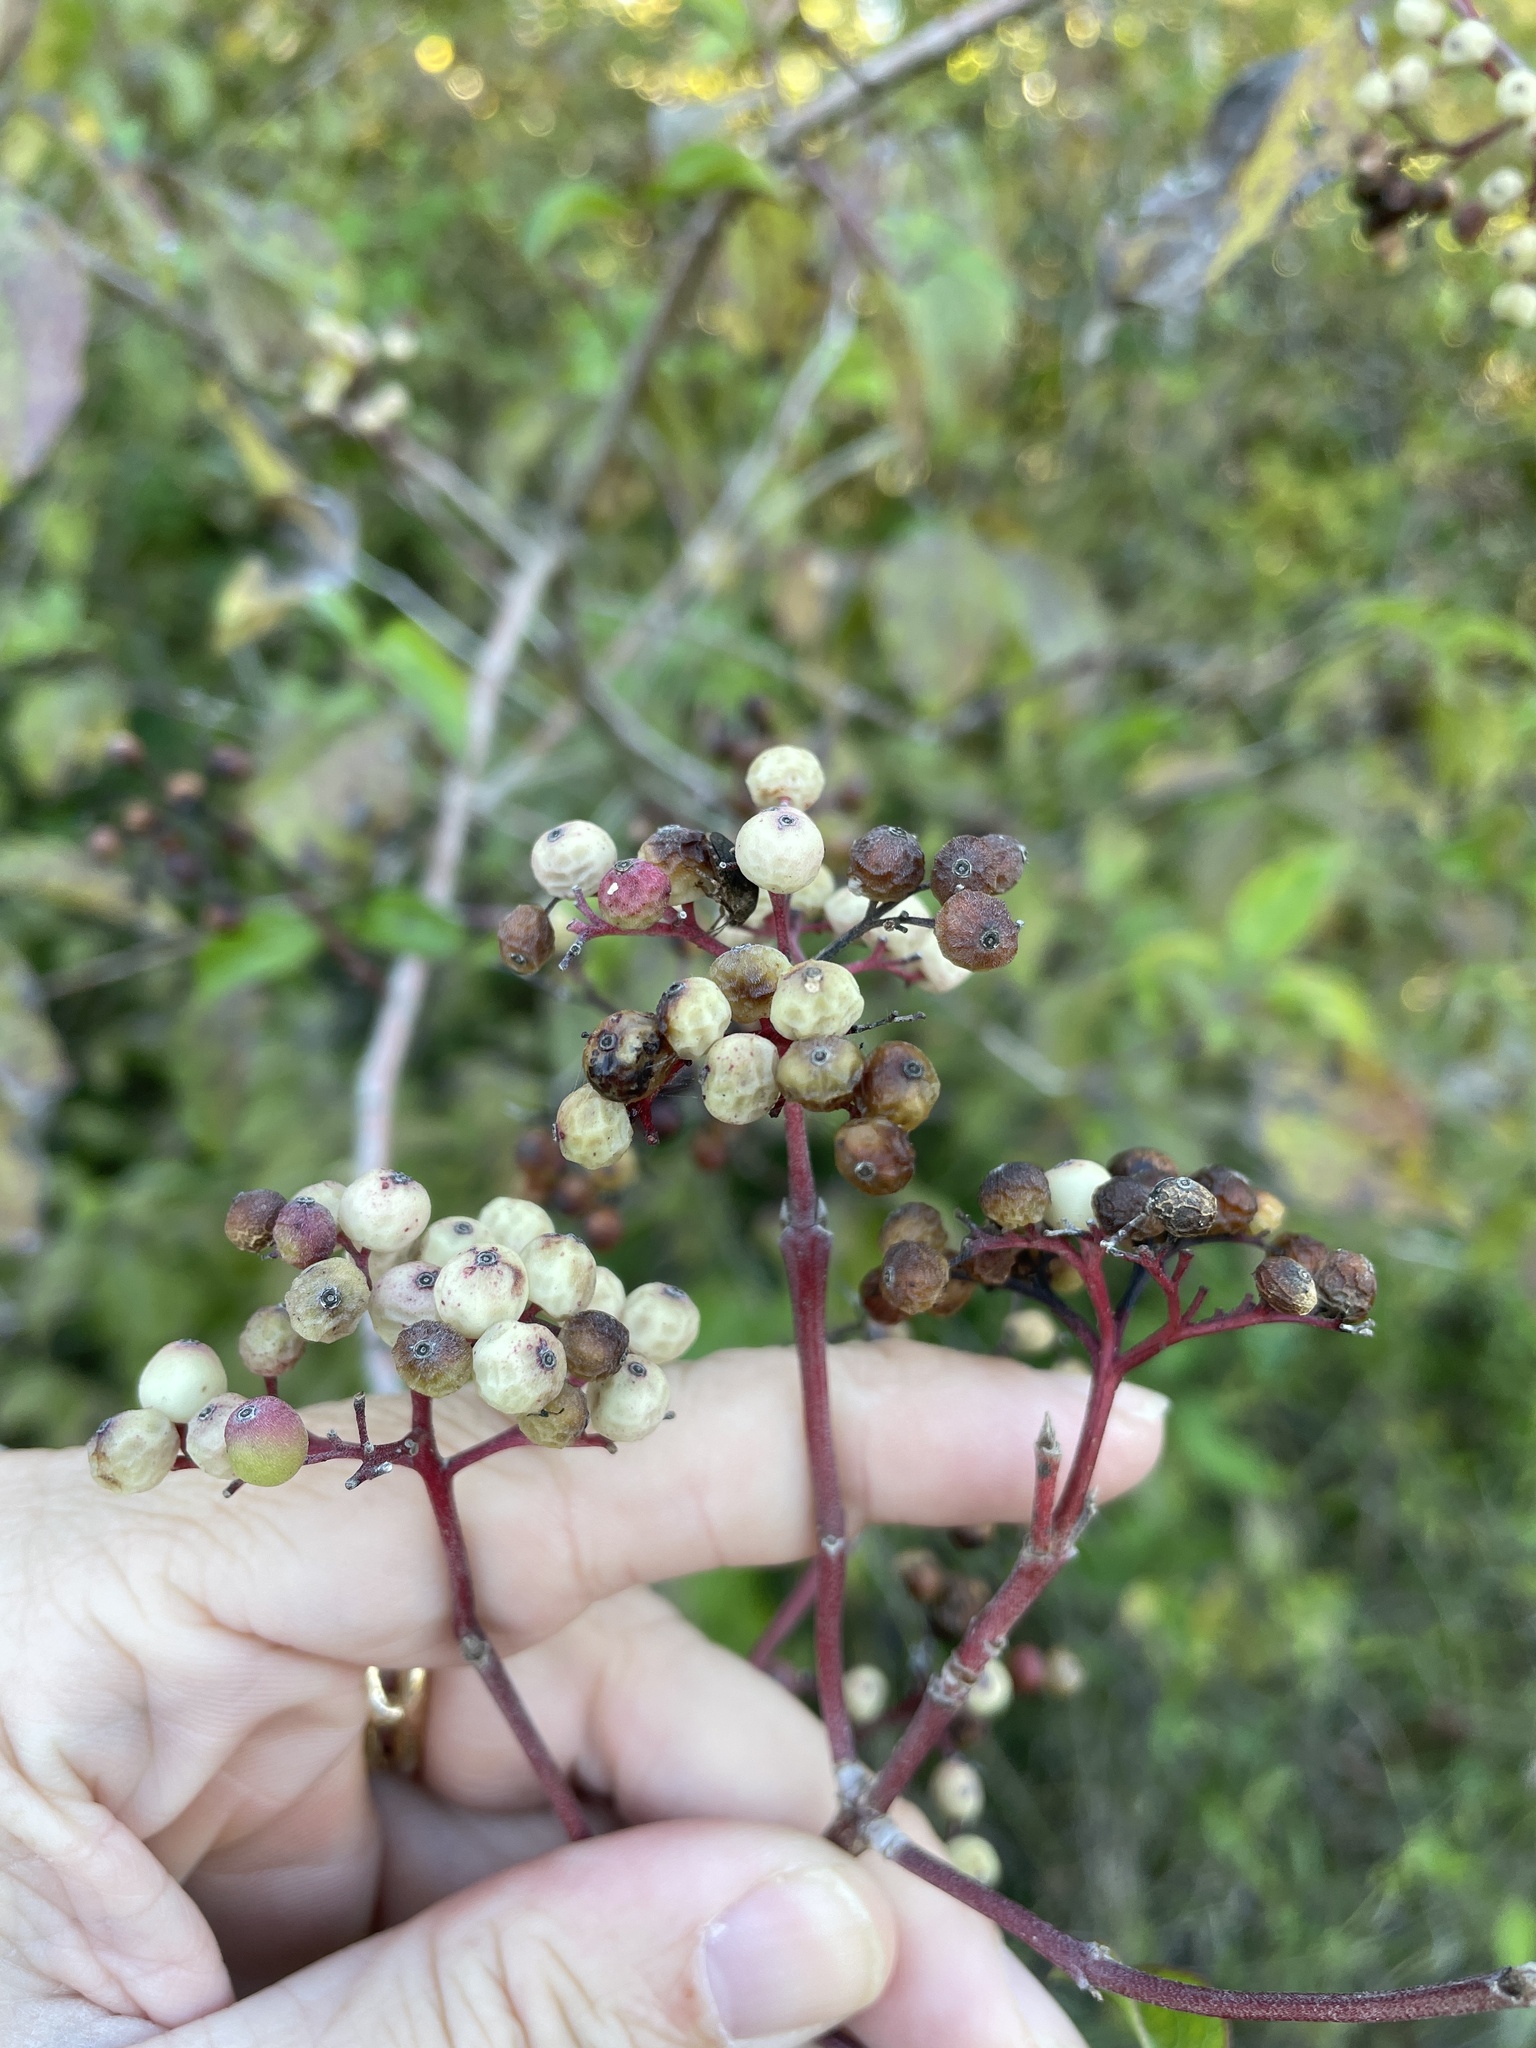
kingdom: Plantae
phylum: Tracheophyta
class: Magnoliopsida
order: Cornales
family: Cornaceae
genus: Cornus
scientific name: Cornus drummondii
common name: Rough-leaf dogwood
